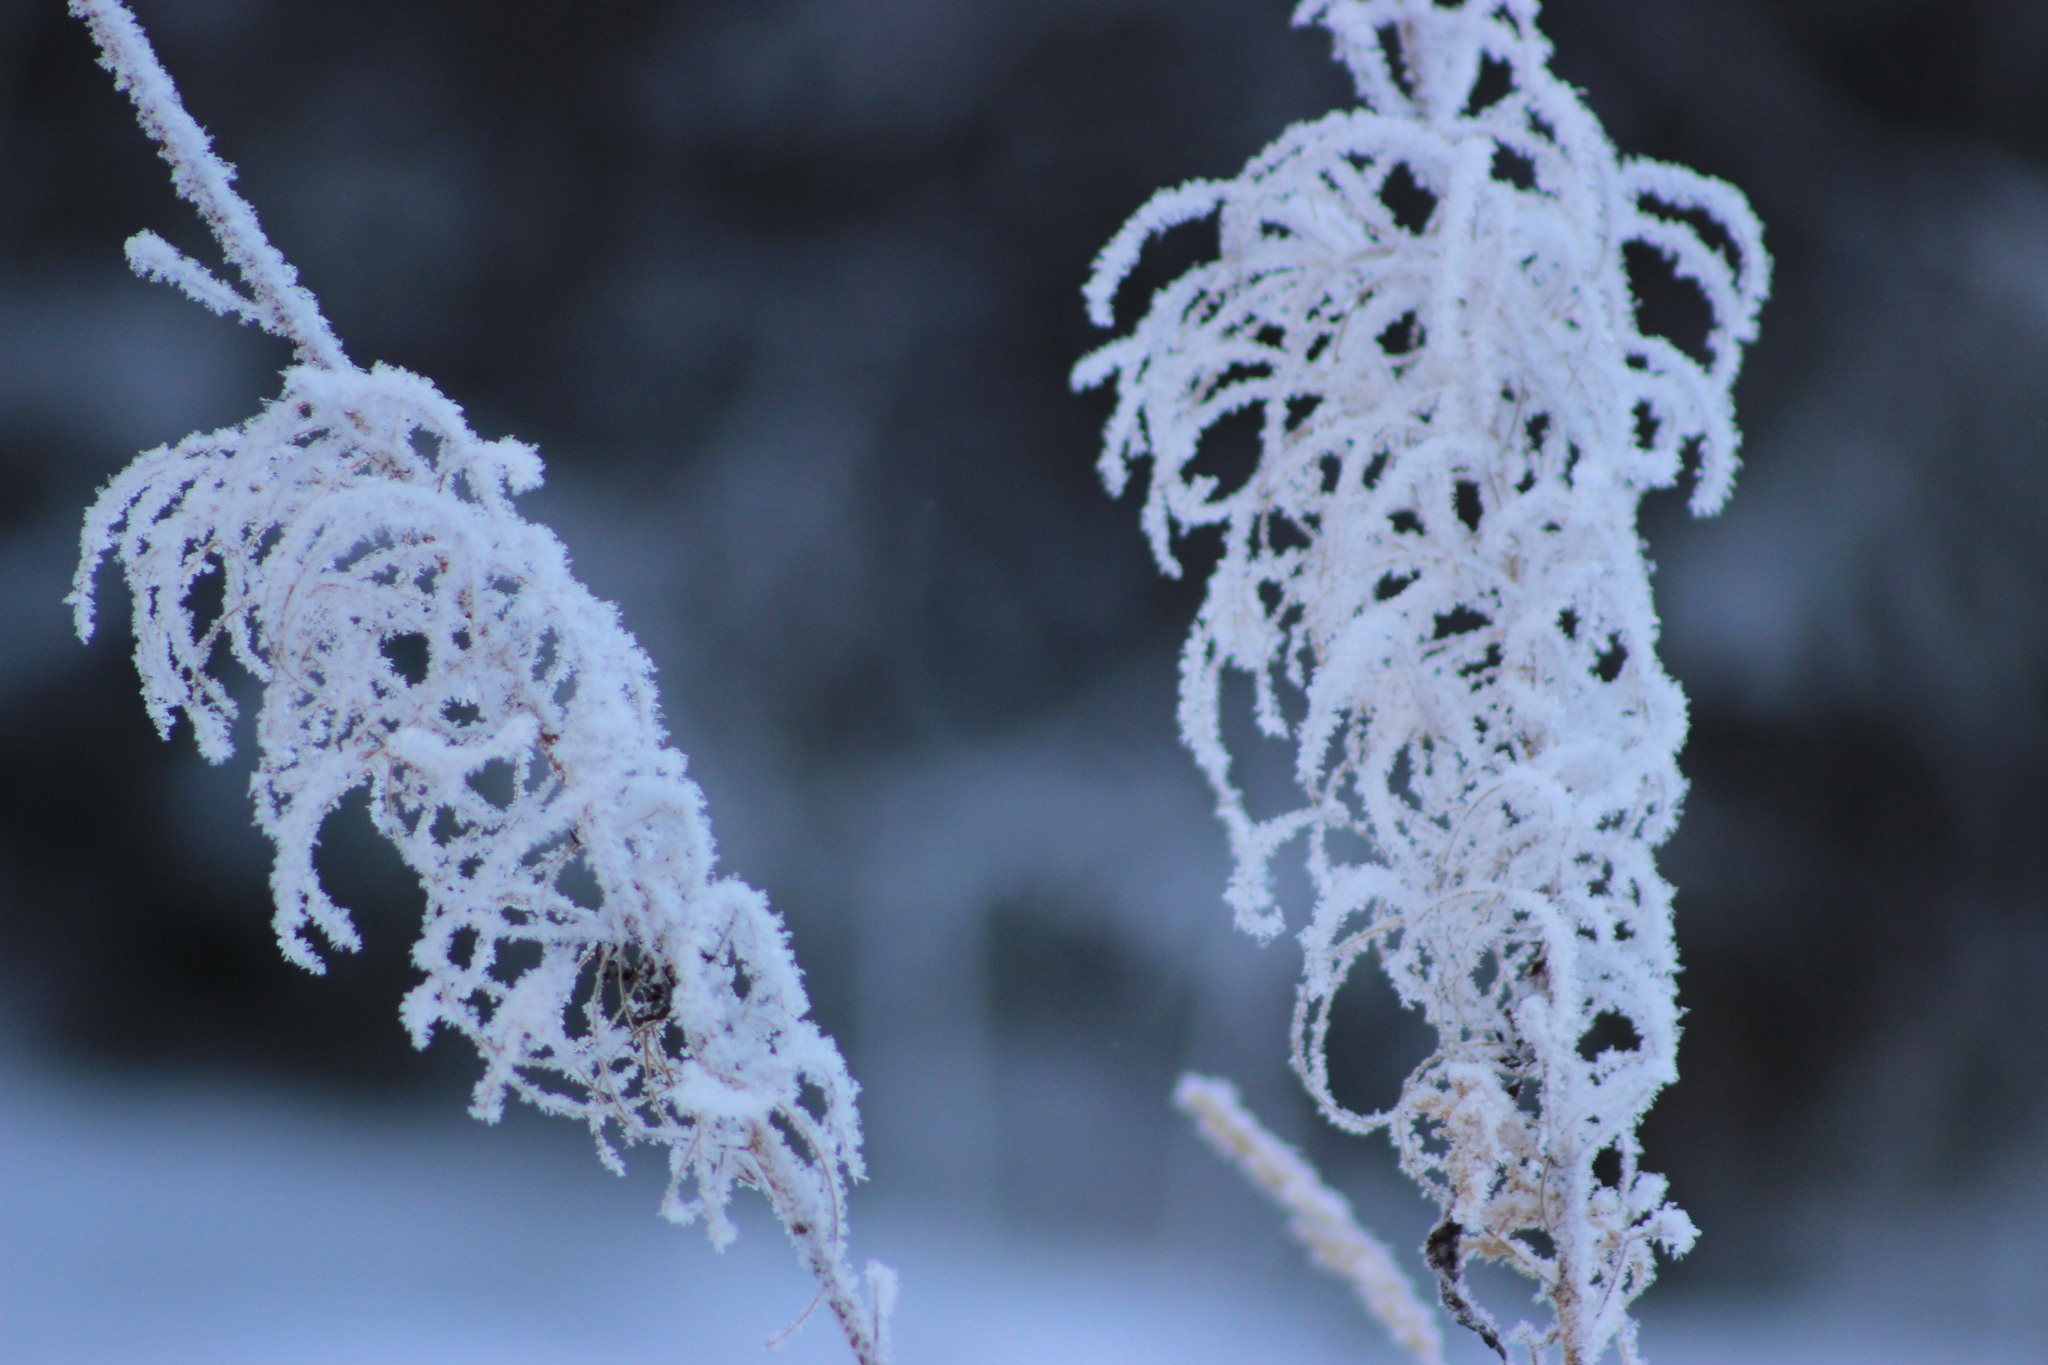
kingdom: Plantae
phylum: Tracheophyta
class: Magnoliopsida
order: Myrtales
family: Onagraceae
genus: Chamaenerion
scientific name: Chamaenerion angustifolium
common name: Fireweed
